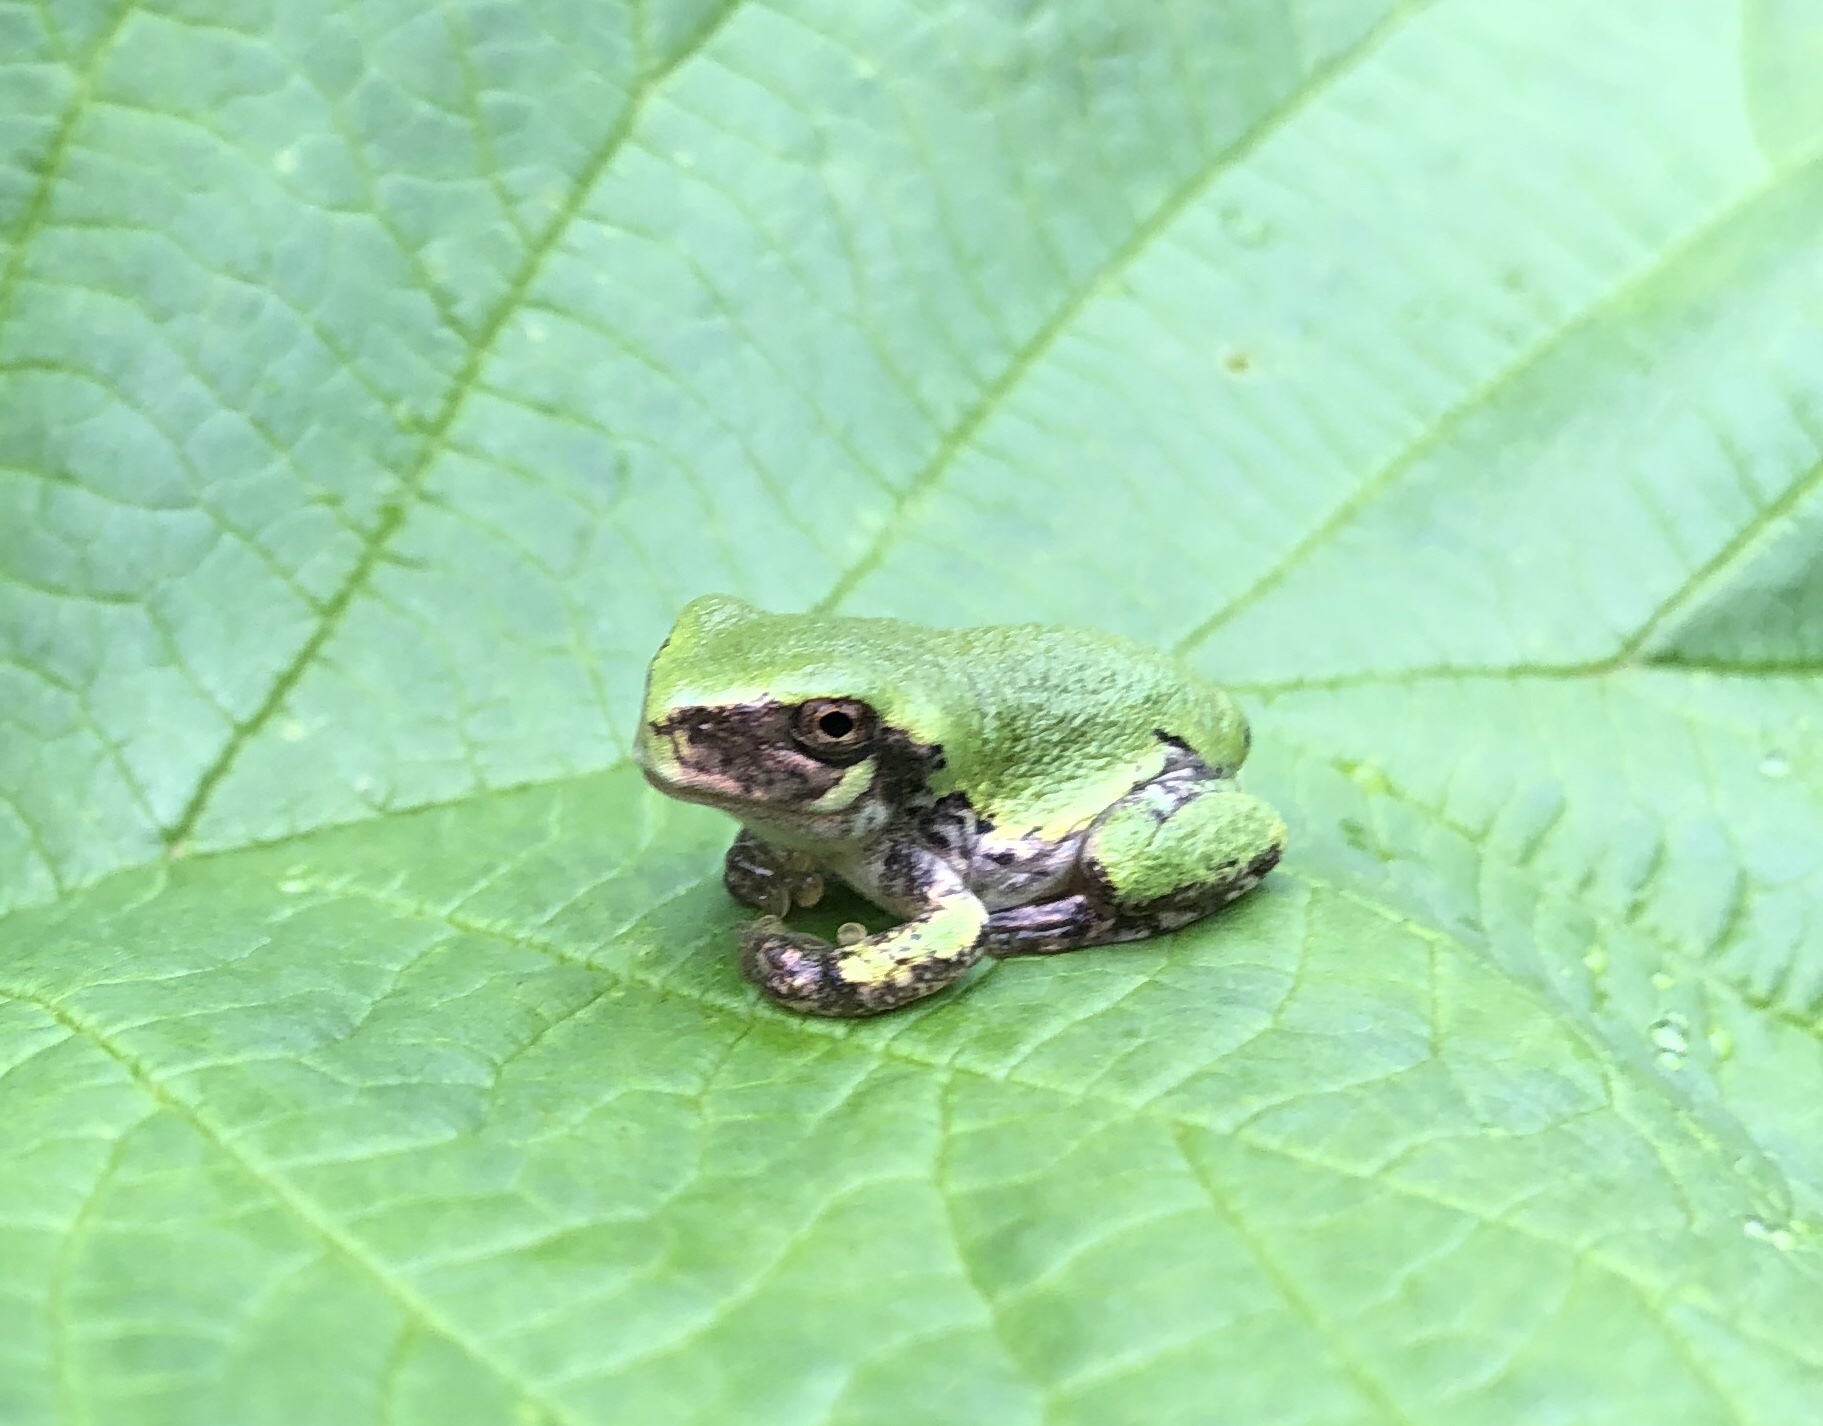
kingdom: Animalia
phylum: Chordata
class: Amphibia
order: Anura
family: Hylidae
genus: Dryophytes
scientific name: Dryophytes versicolor
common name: Gray treefrog
